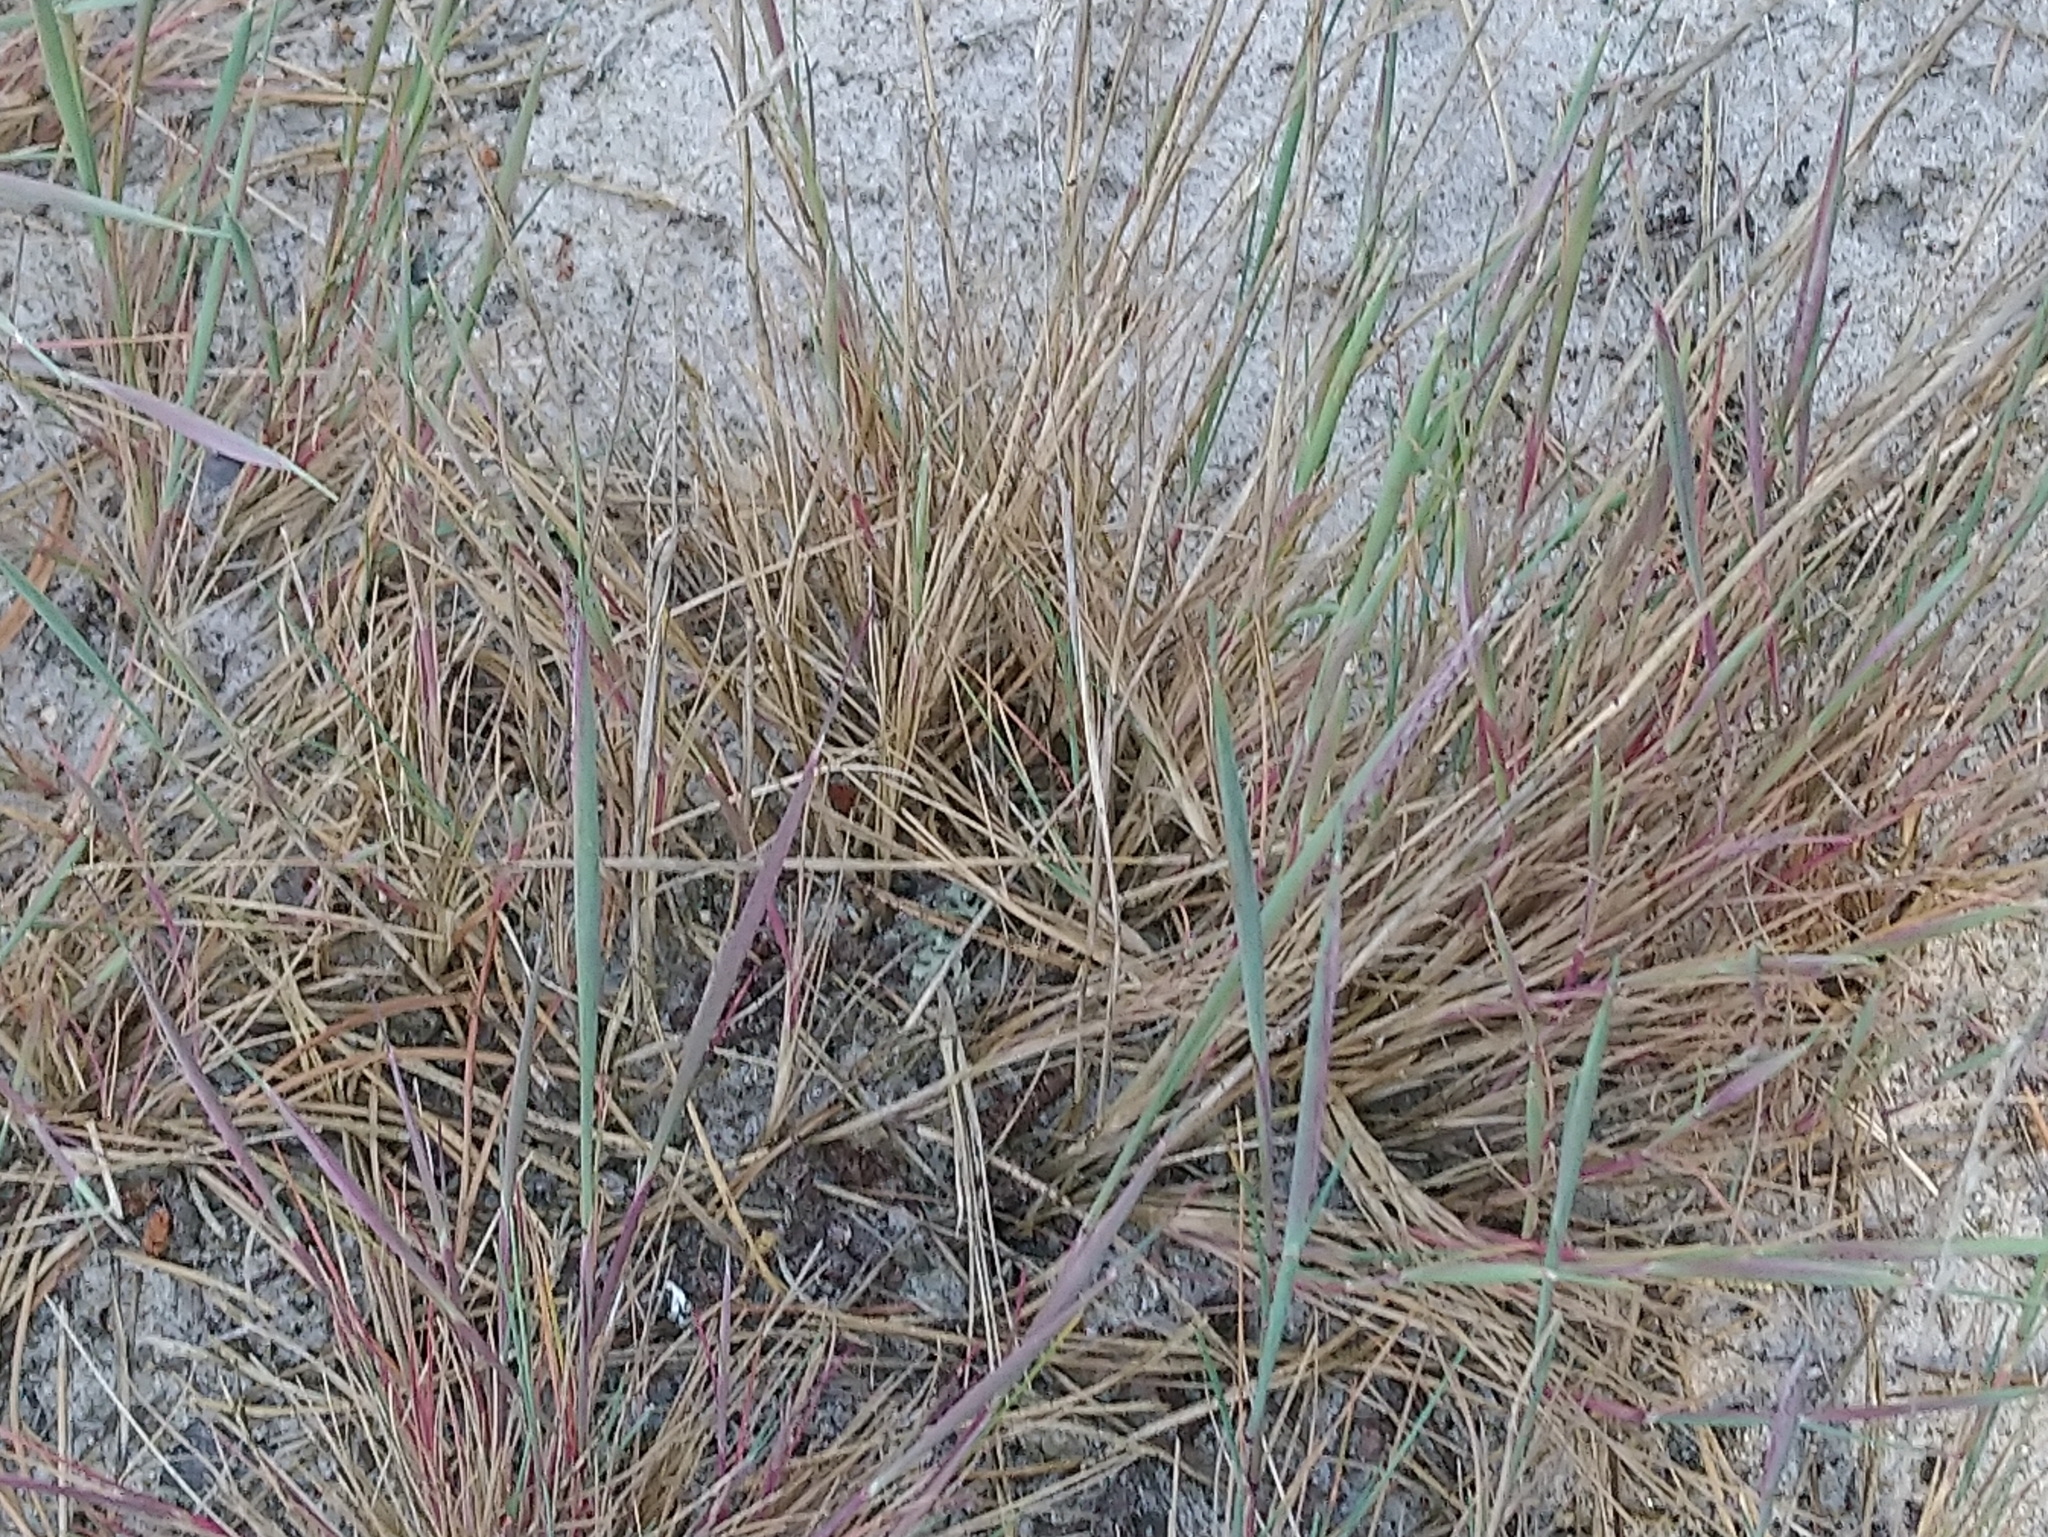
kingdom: Plantae
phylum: Tracheophyta
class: Liliopsida
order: Poales
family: Poaceae
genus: Corynephorus
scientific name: Corynephorus canescens
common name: Grey hair-grass
